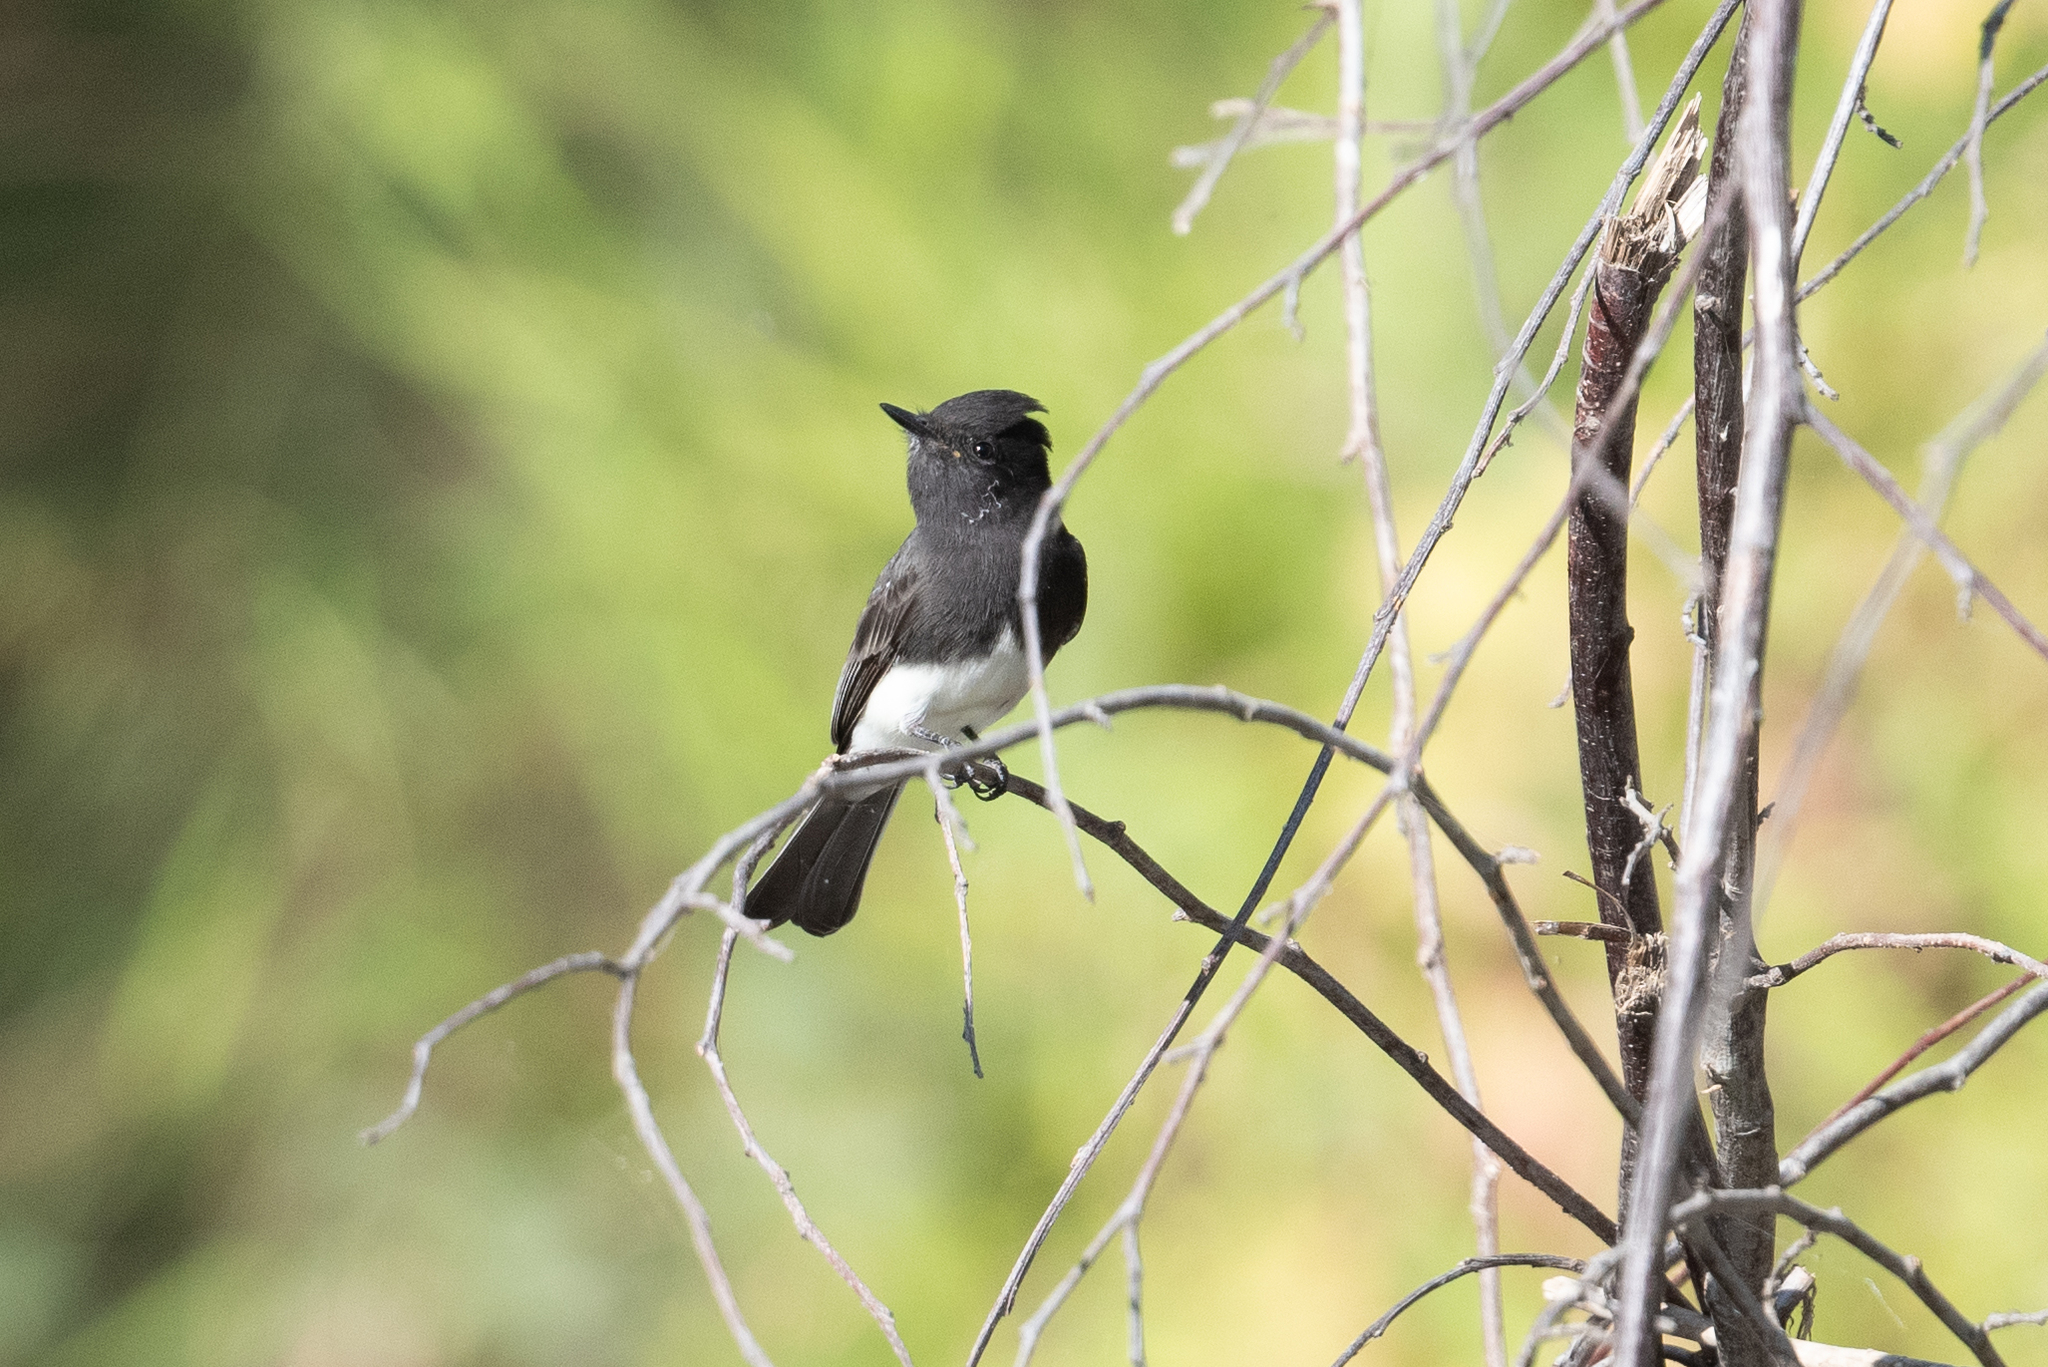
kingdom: Animalia
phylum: Chordata
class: Aves
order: Passeriformes
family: Tyrannidae
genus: Sayornis
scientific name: Sayornis nigricans
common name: Black phoebe
